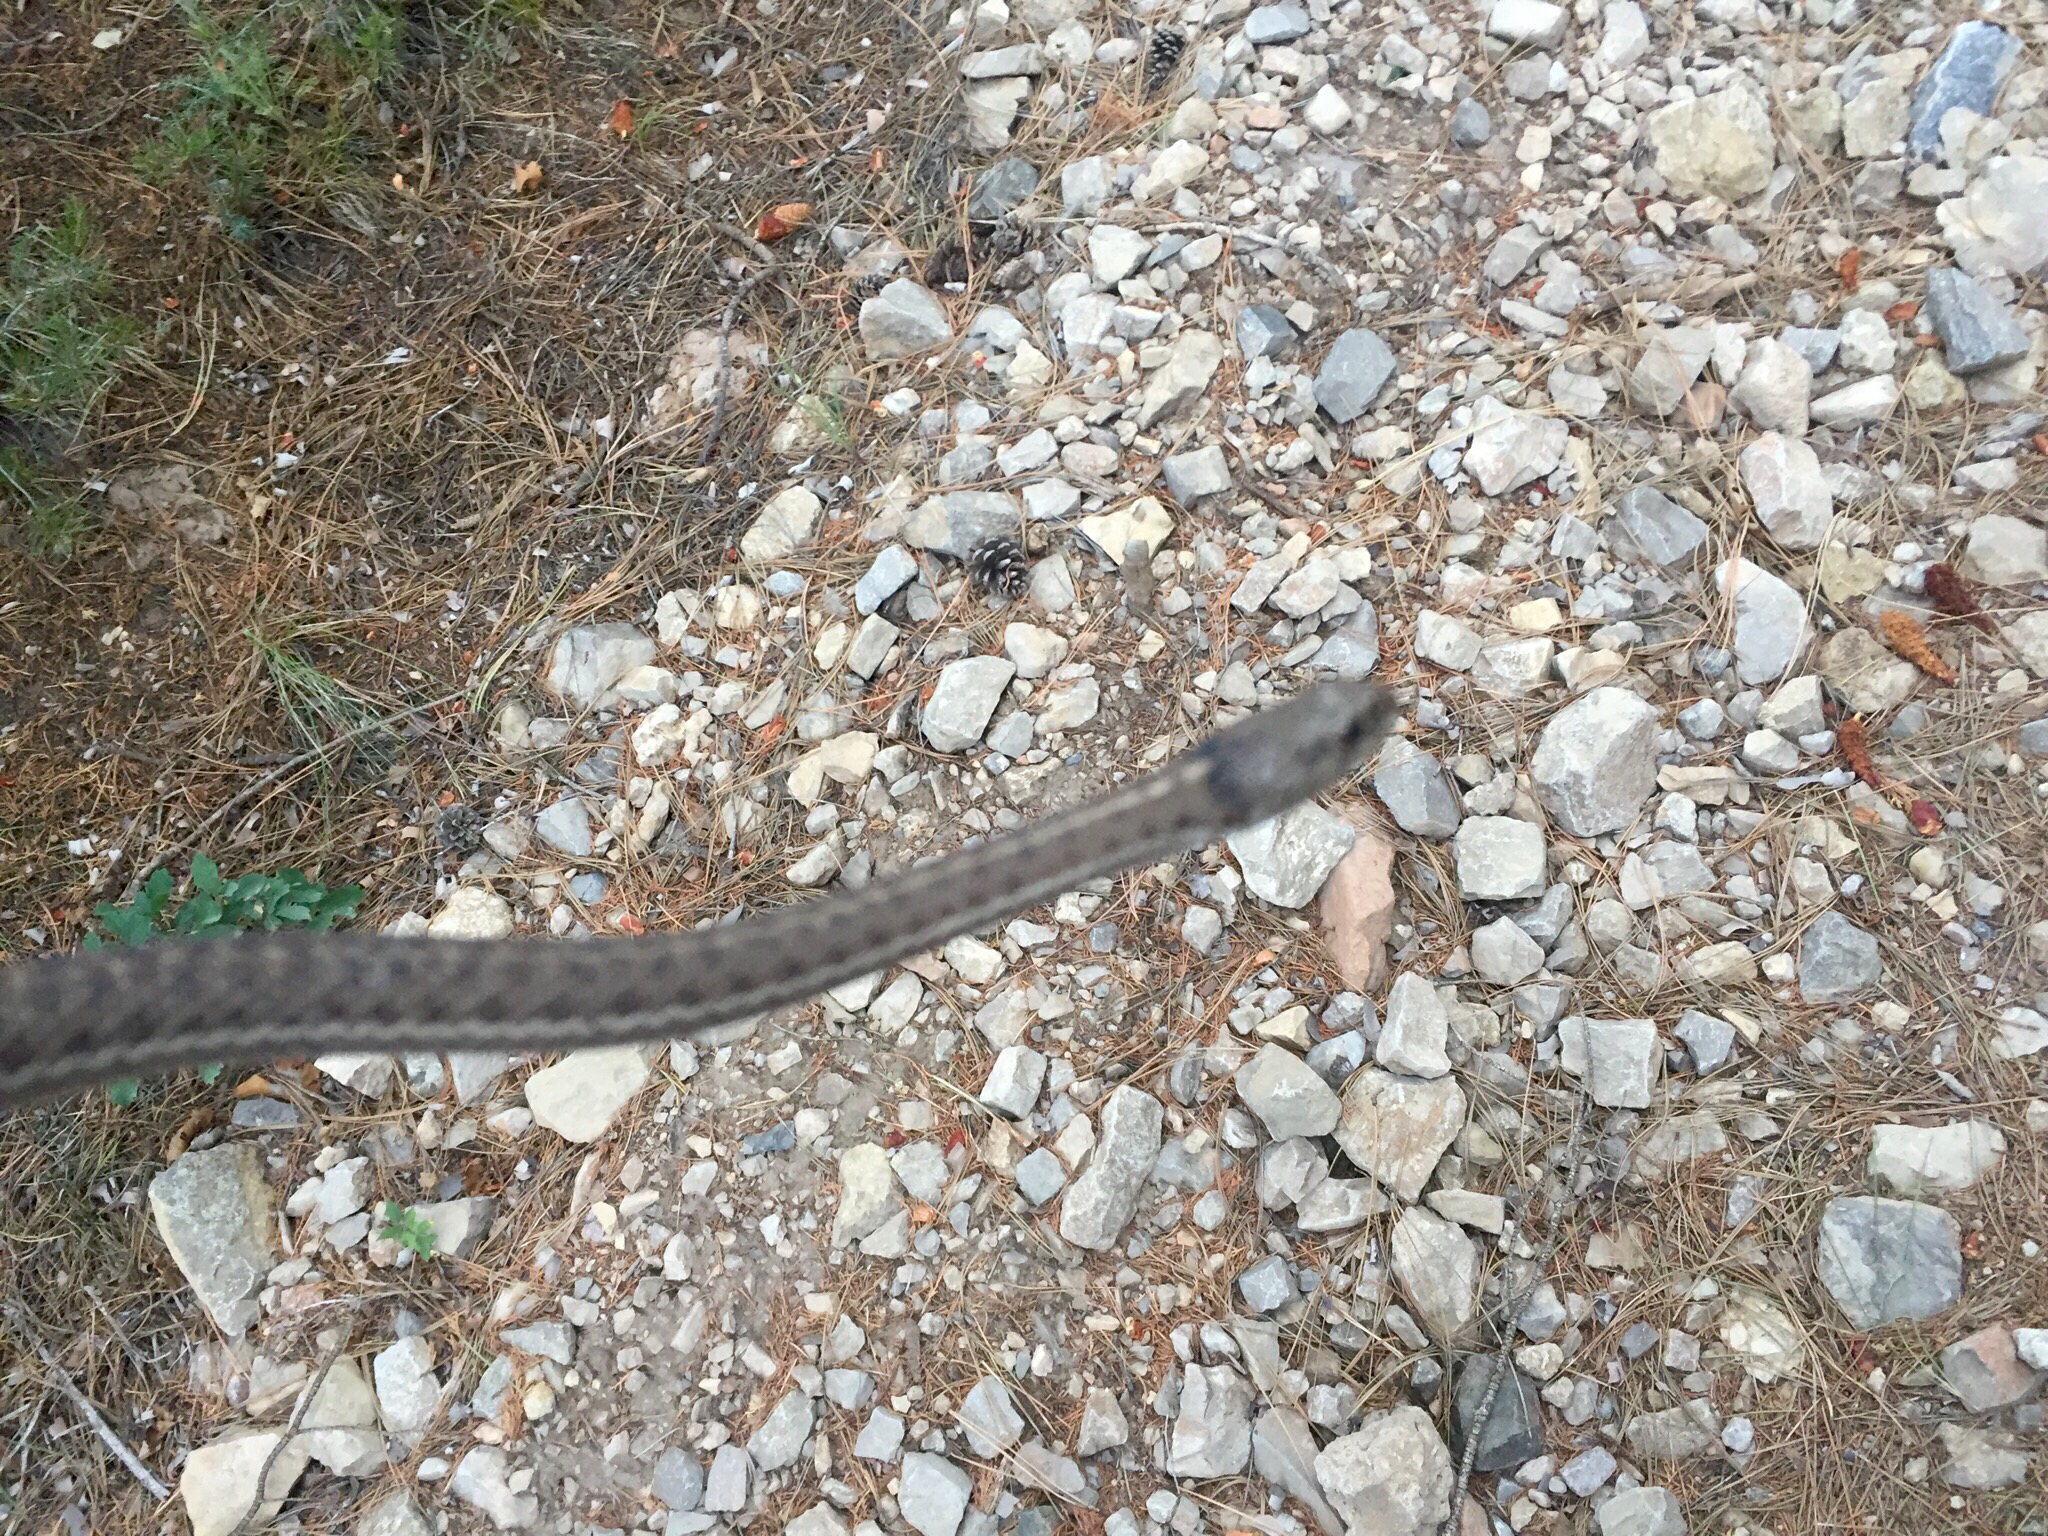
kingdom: Animalia
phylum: Chordata
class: Squamata
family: Colubridae
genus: Thamnophis
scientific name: Thamnophis elegans
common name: Western terrestrial garter snake
